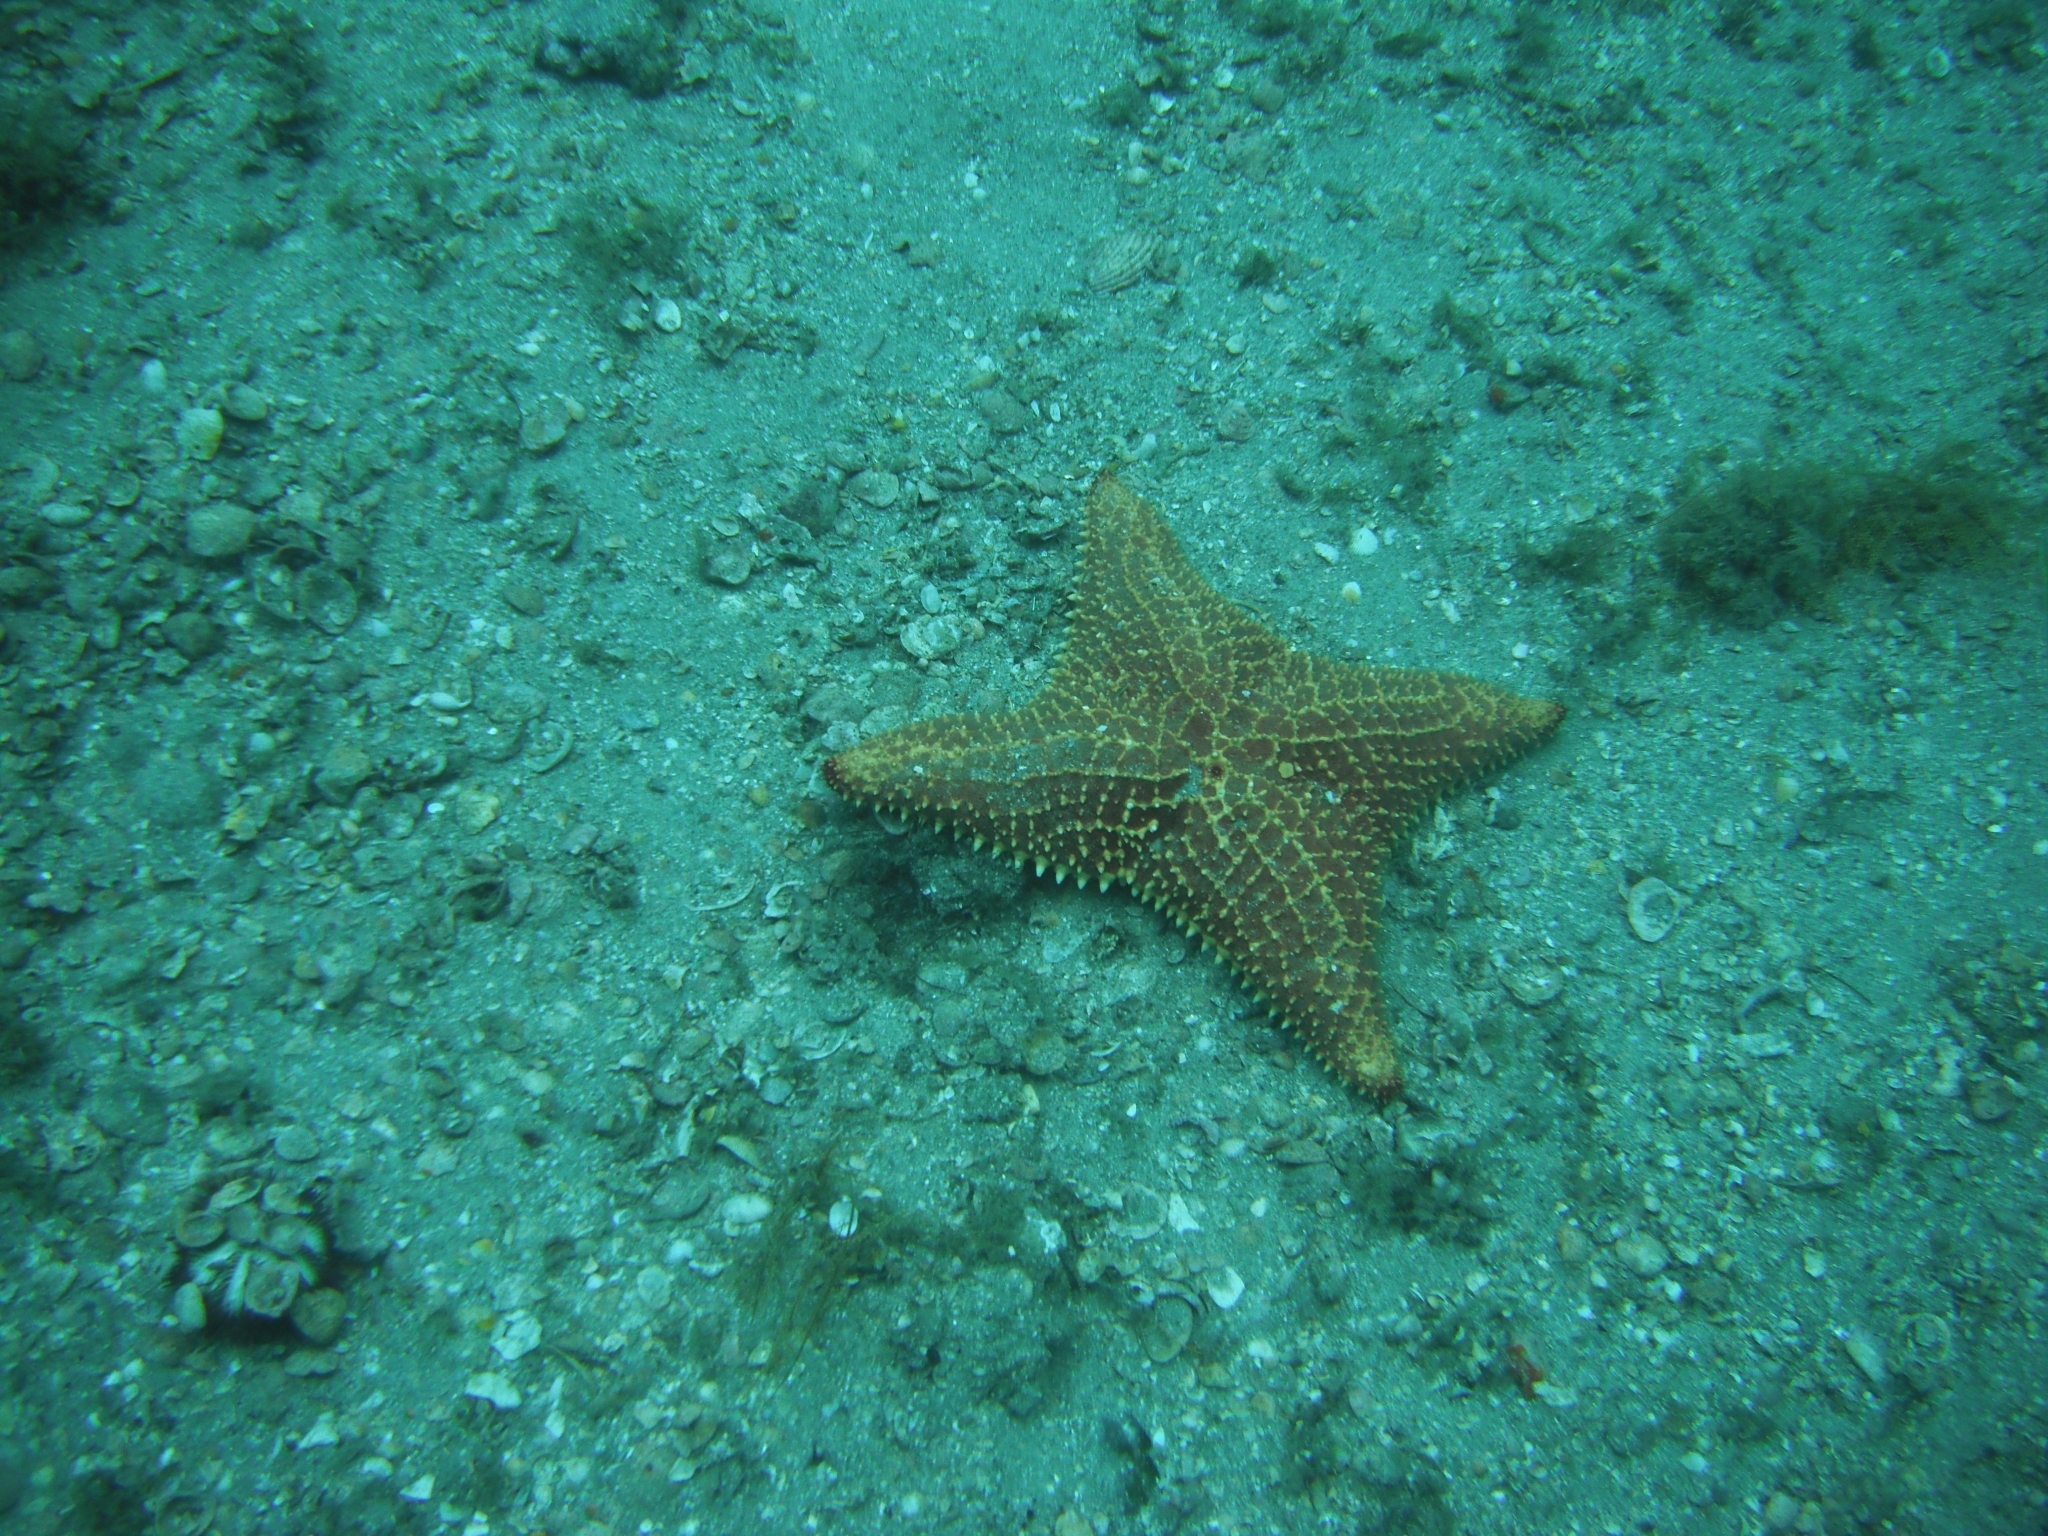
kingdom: Animalia
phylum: Echinodermata
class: Asteroidea
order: Valvatida
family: Oreasteridae
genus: Oreaster
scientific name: Oreaster reticulatus
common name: Cushion sea star
